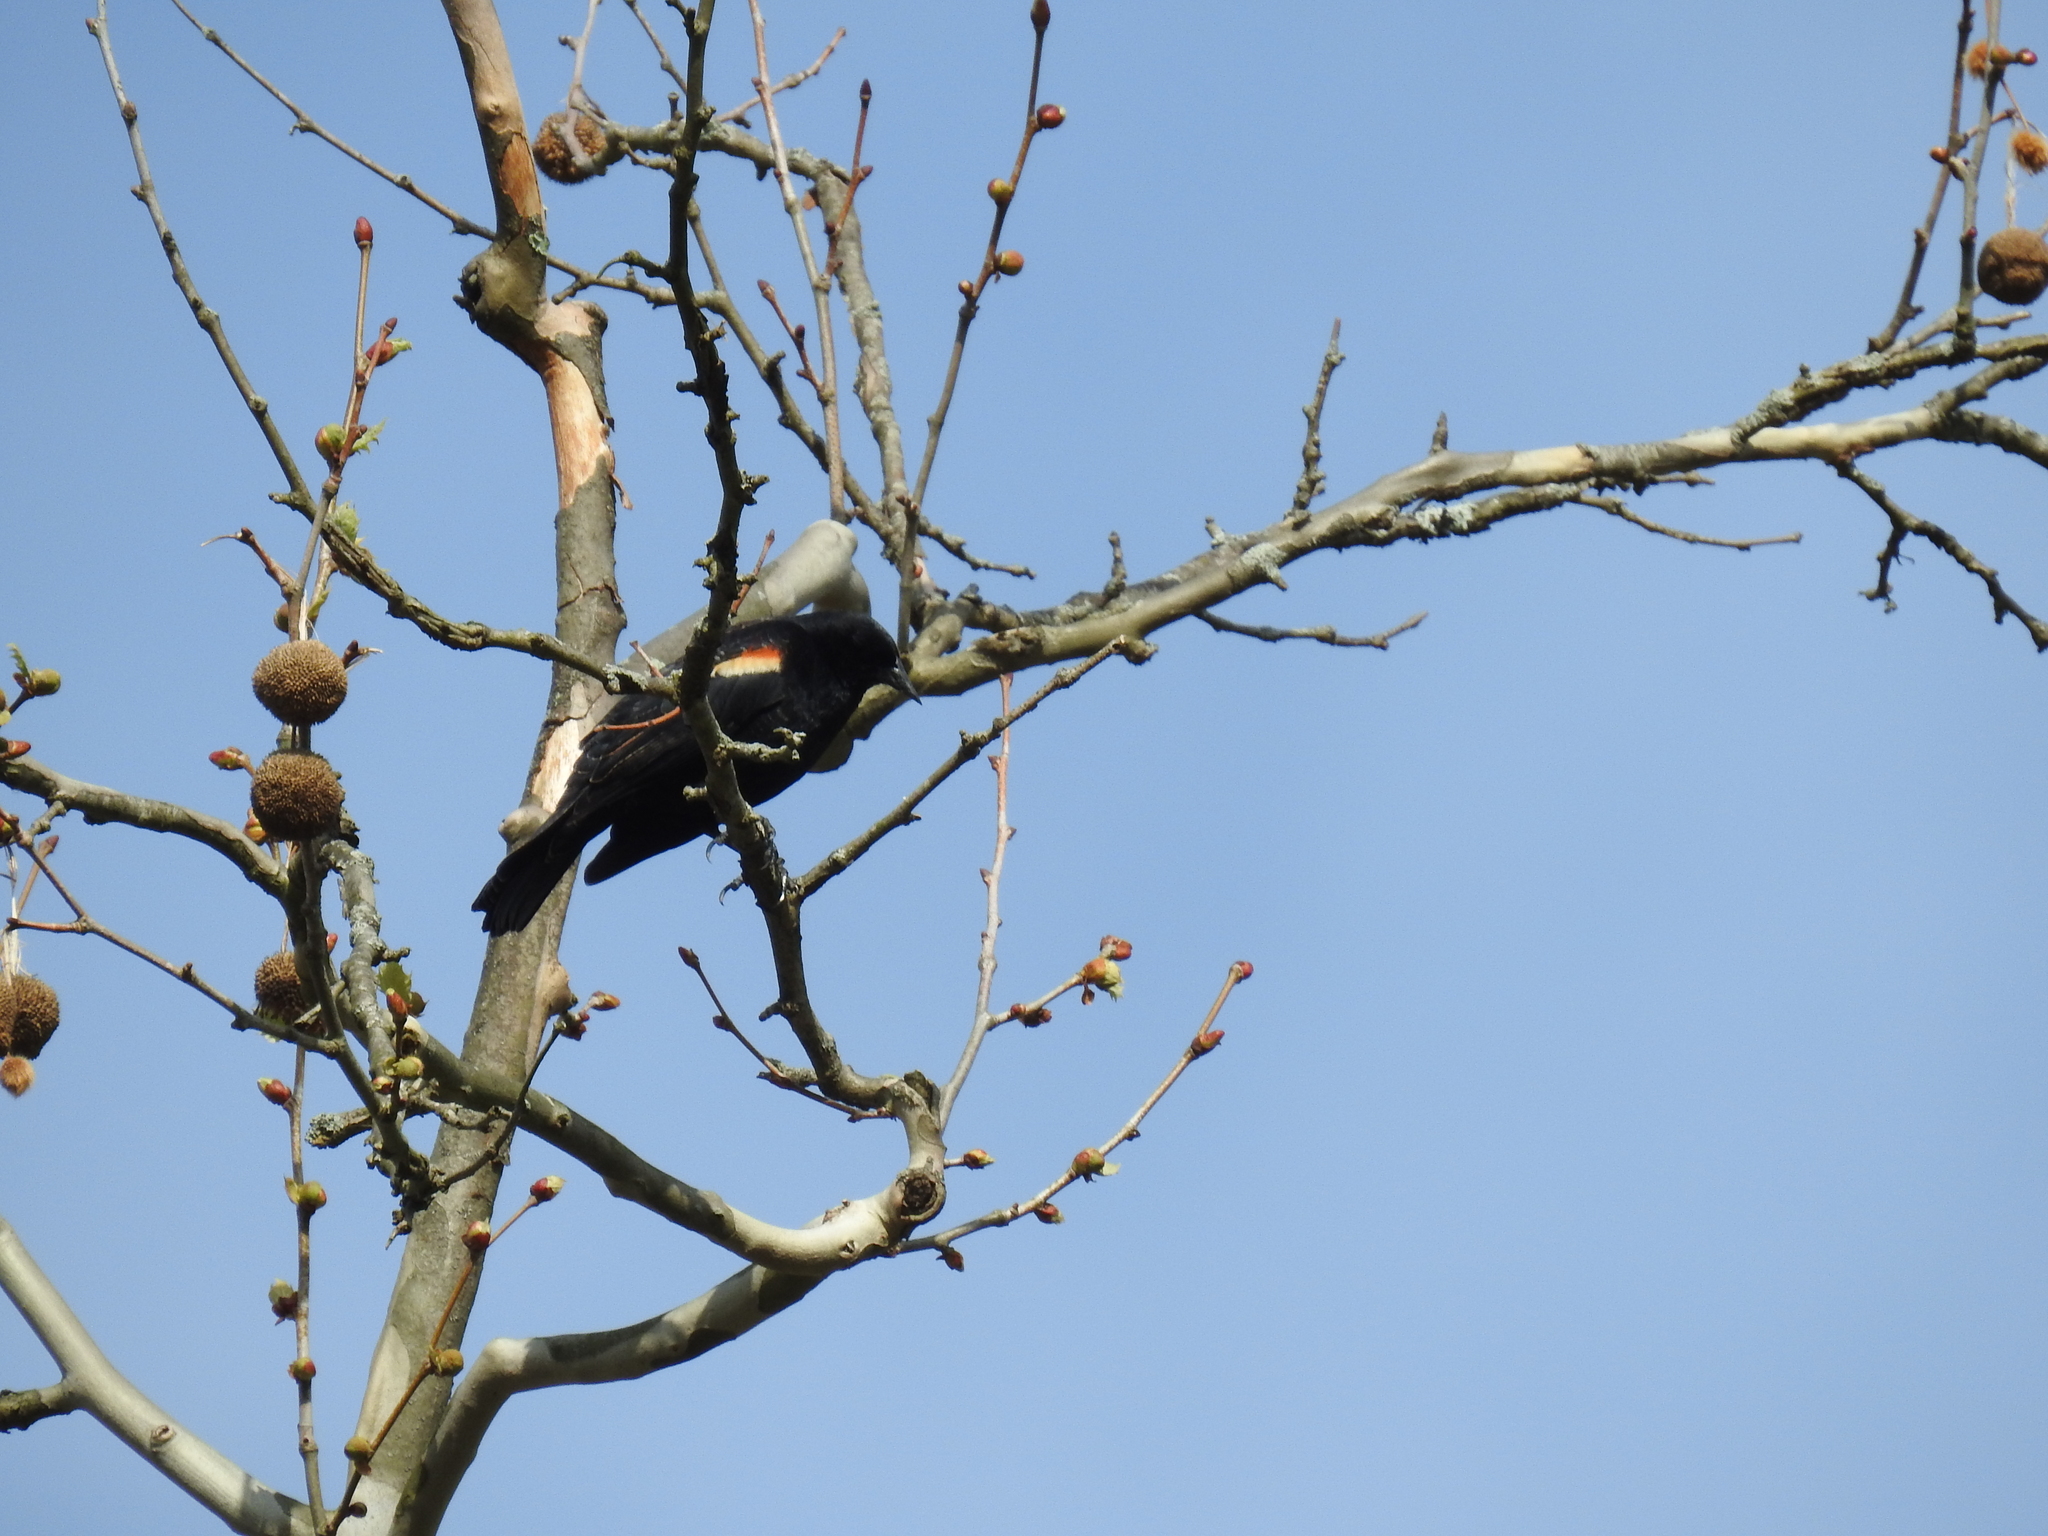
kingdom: Animalia
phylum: Chordata
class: Aves
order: Passeriformes
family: Icteridae
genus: Agelaius
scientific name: Agelaius phoeniceus
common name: Red-winged blackbird
